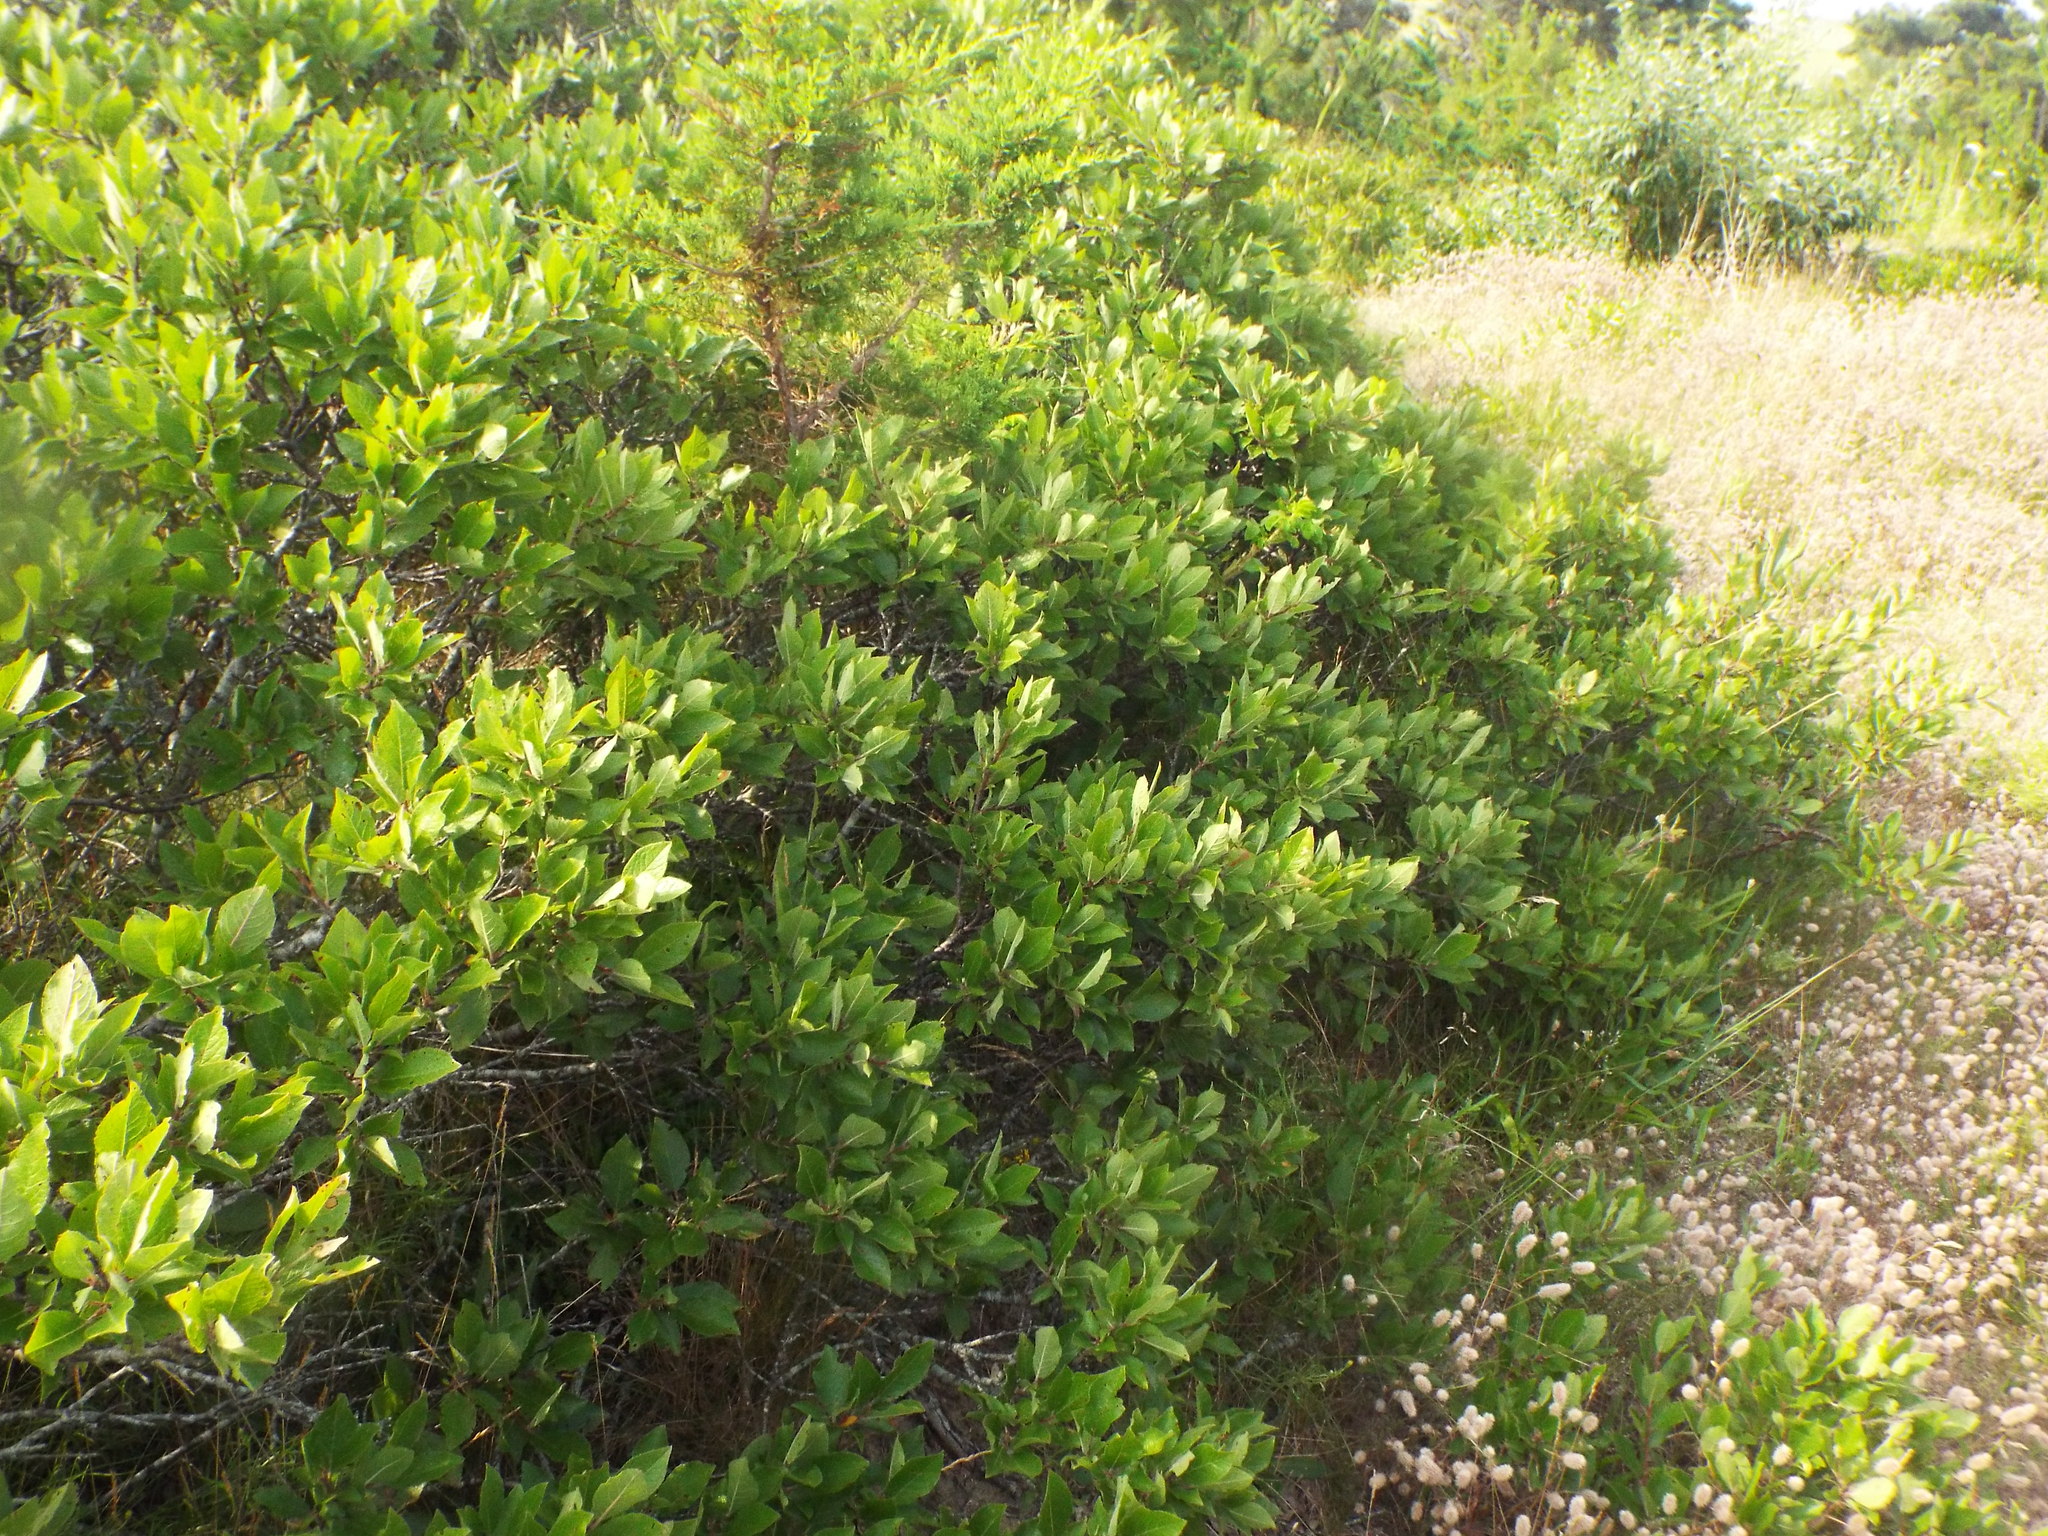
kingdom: Plantae
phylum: Tracheophyta
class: Magnoliopsida
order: Rosales
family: Rosaceae
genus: Prunus
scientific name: Prunus maritima
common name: Beach plum
